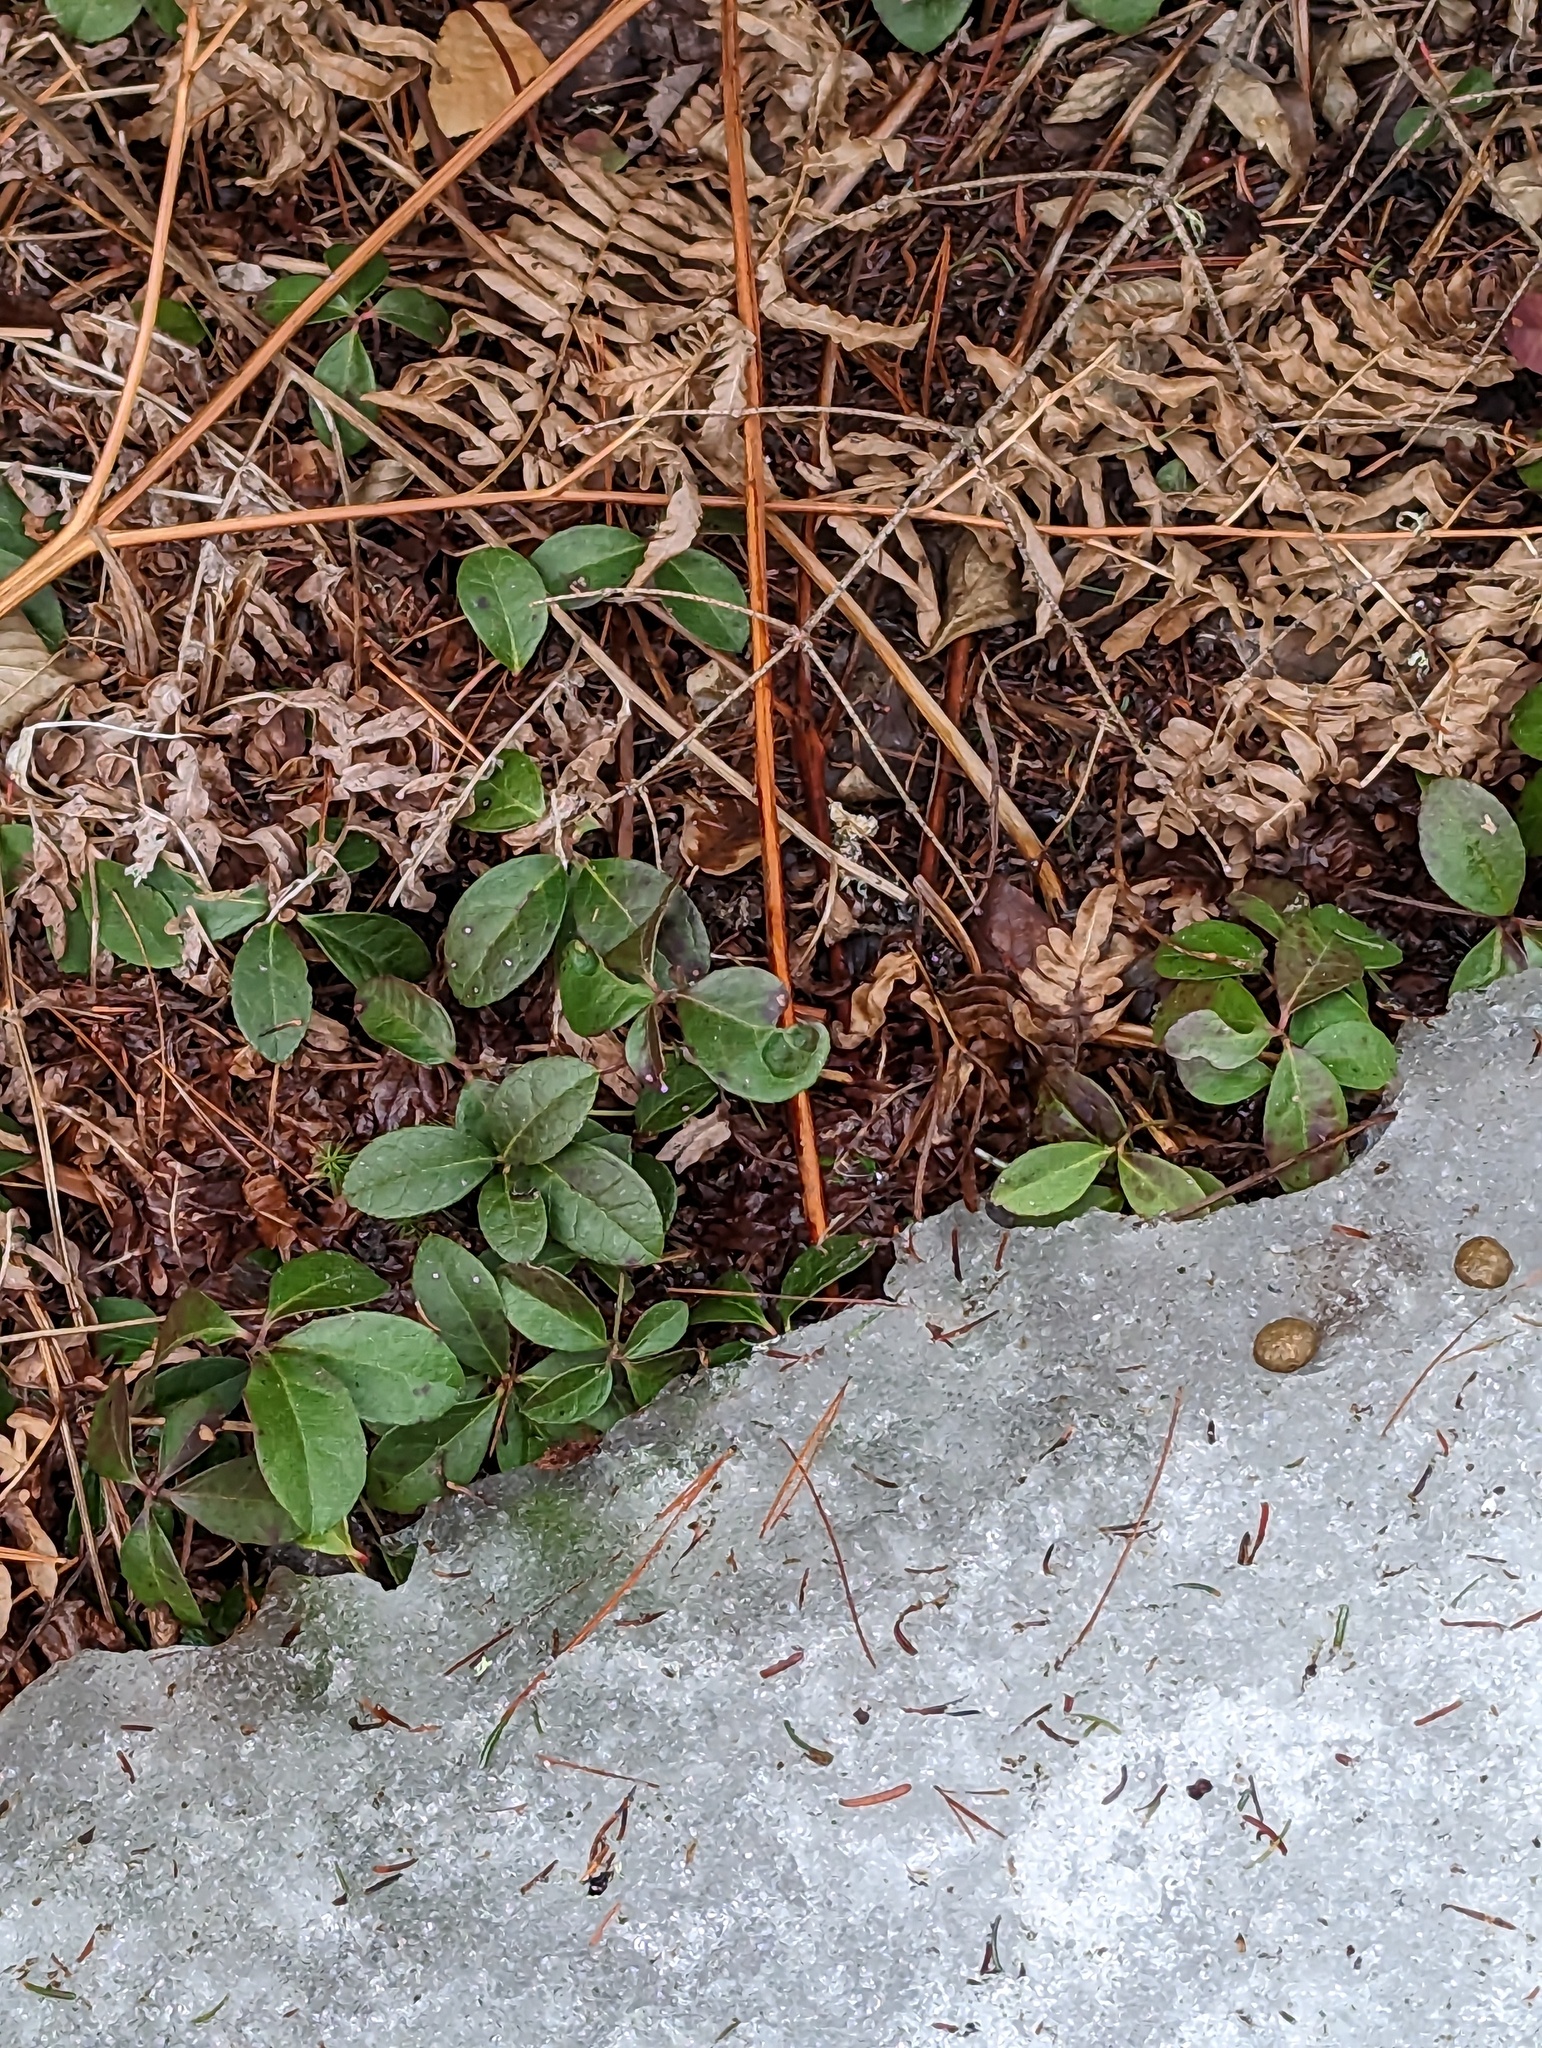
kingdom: Plantae
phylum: Tracheophyta
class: Magnoliopsida
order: Ericales
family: Ericaceae
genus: Gaultheria
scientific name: Gaultheria procumbens
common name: Checkerberry
